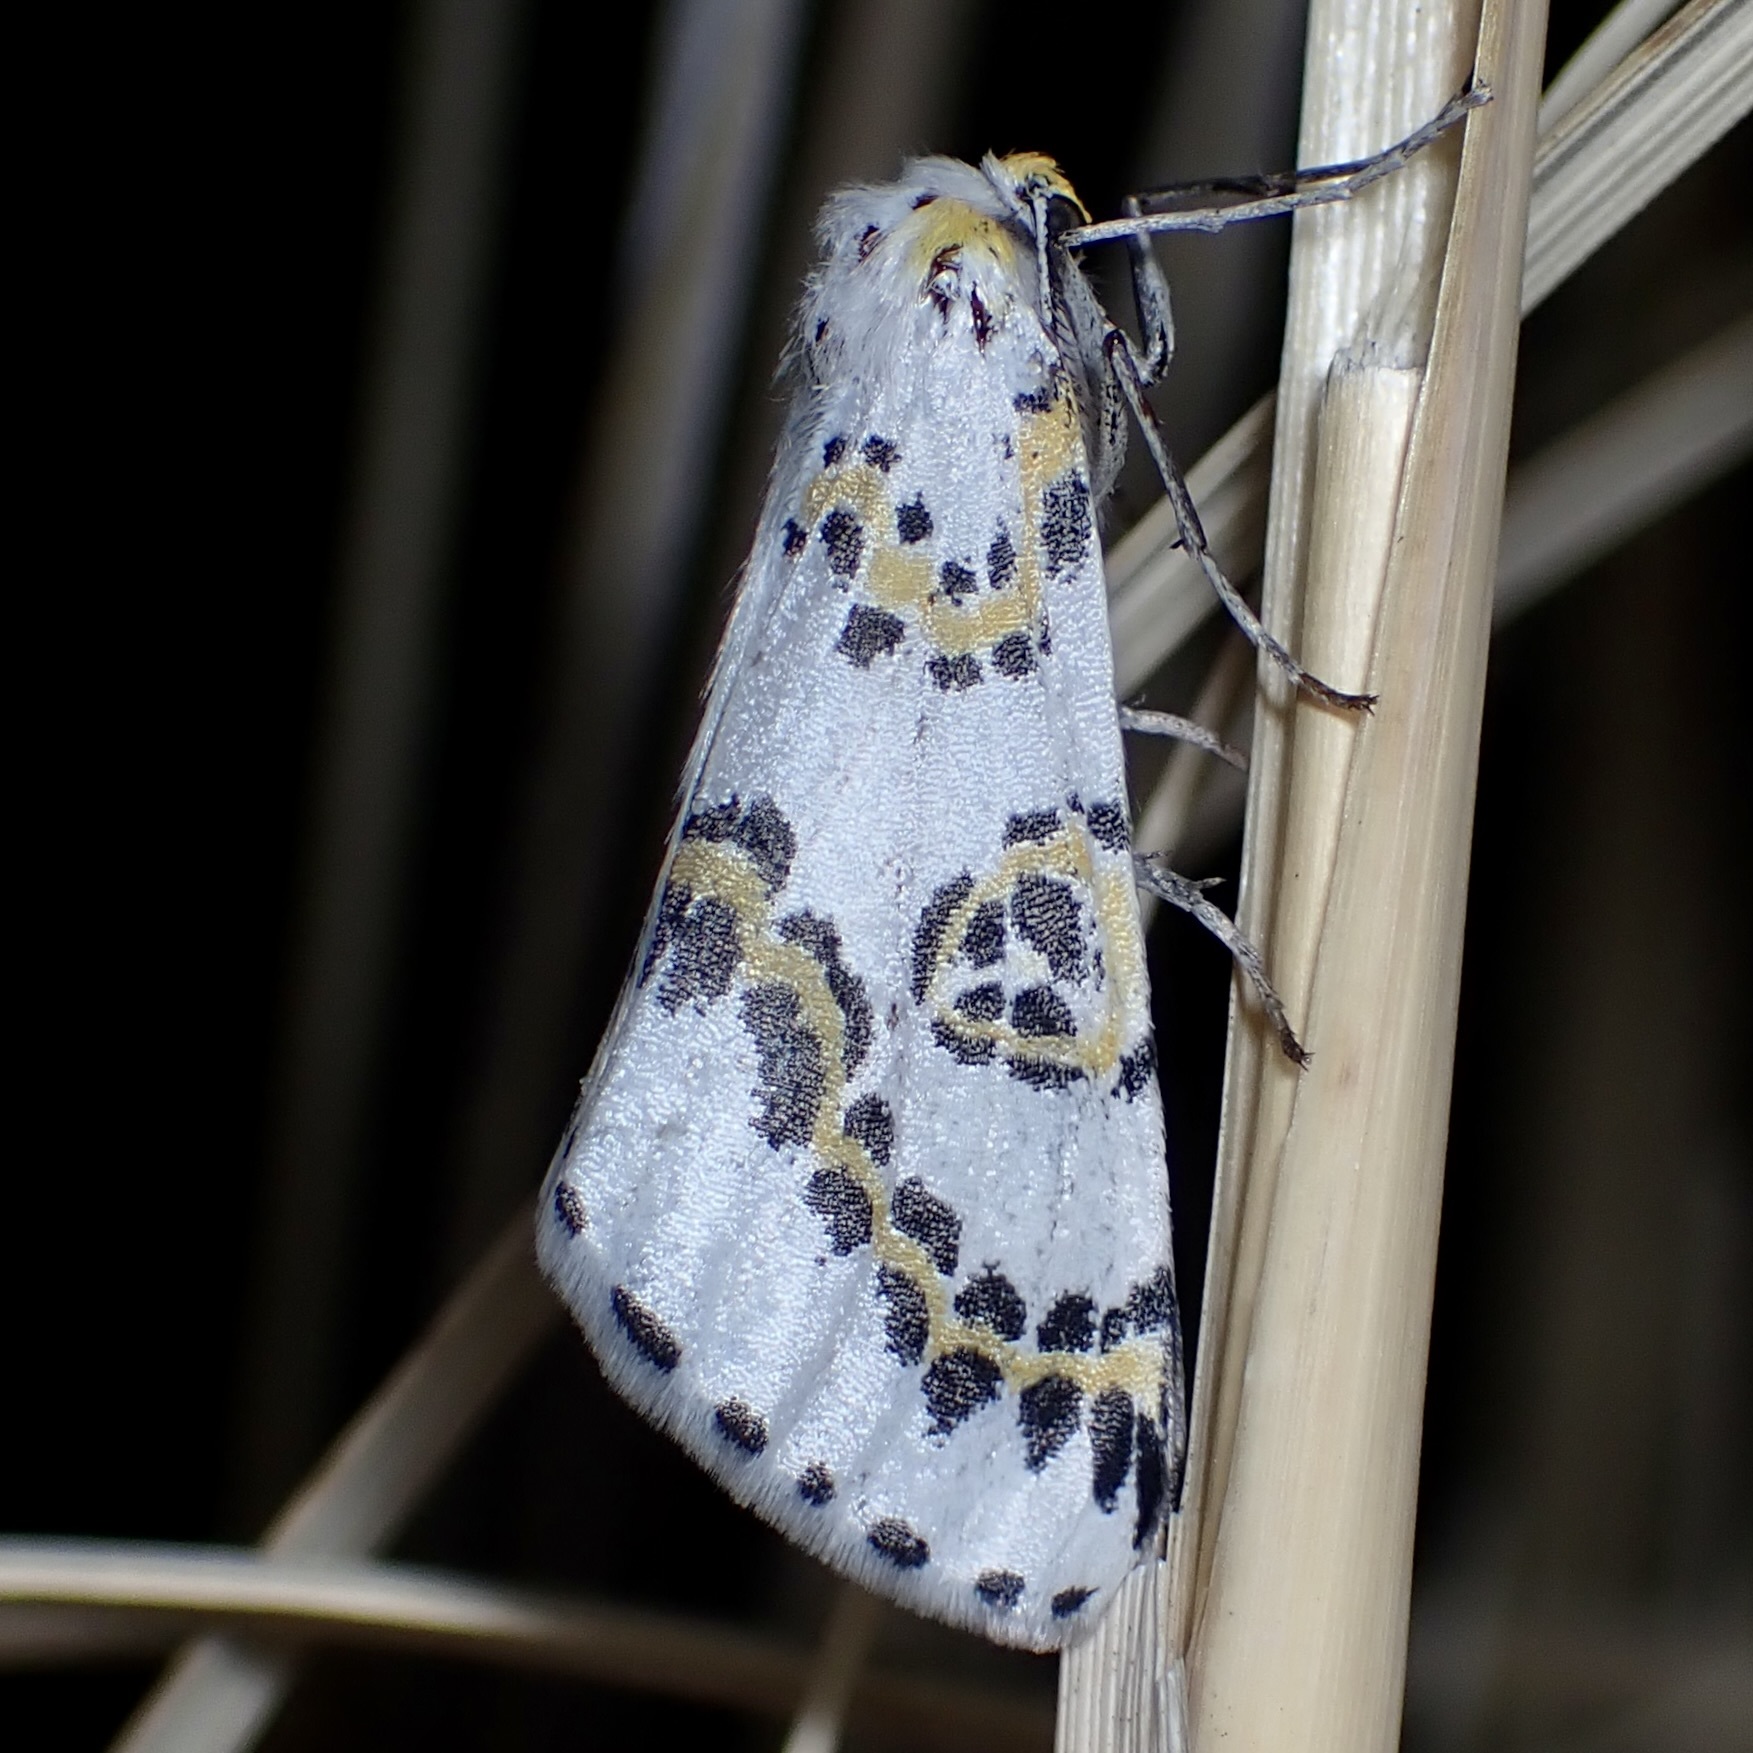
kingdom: Animalia
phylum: Arthropoda
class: Insecta
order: Lepidoptera
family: Geometridae
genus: Philtraea
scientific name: Philtraea elegantaria
